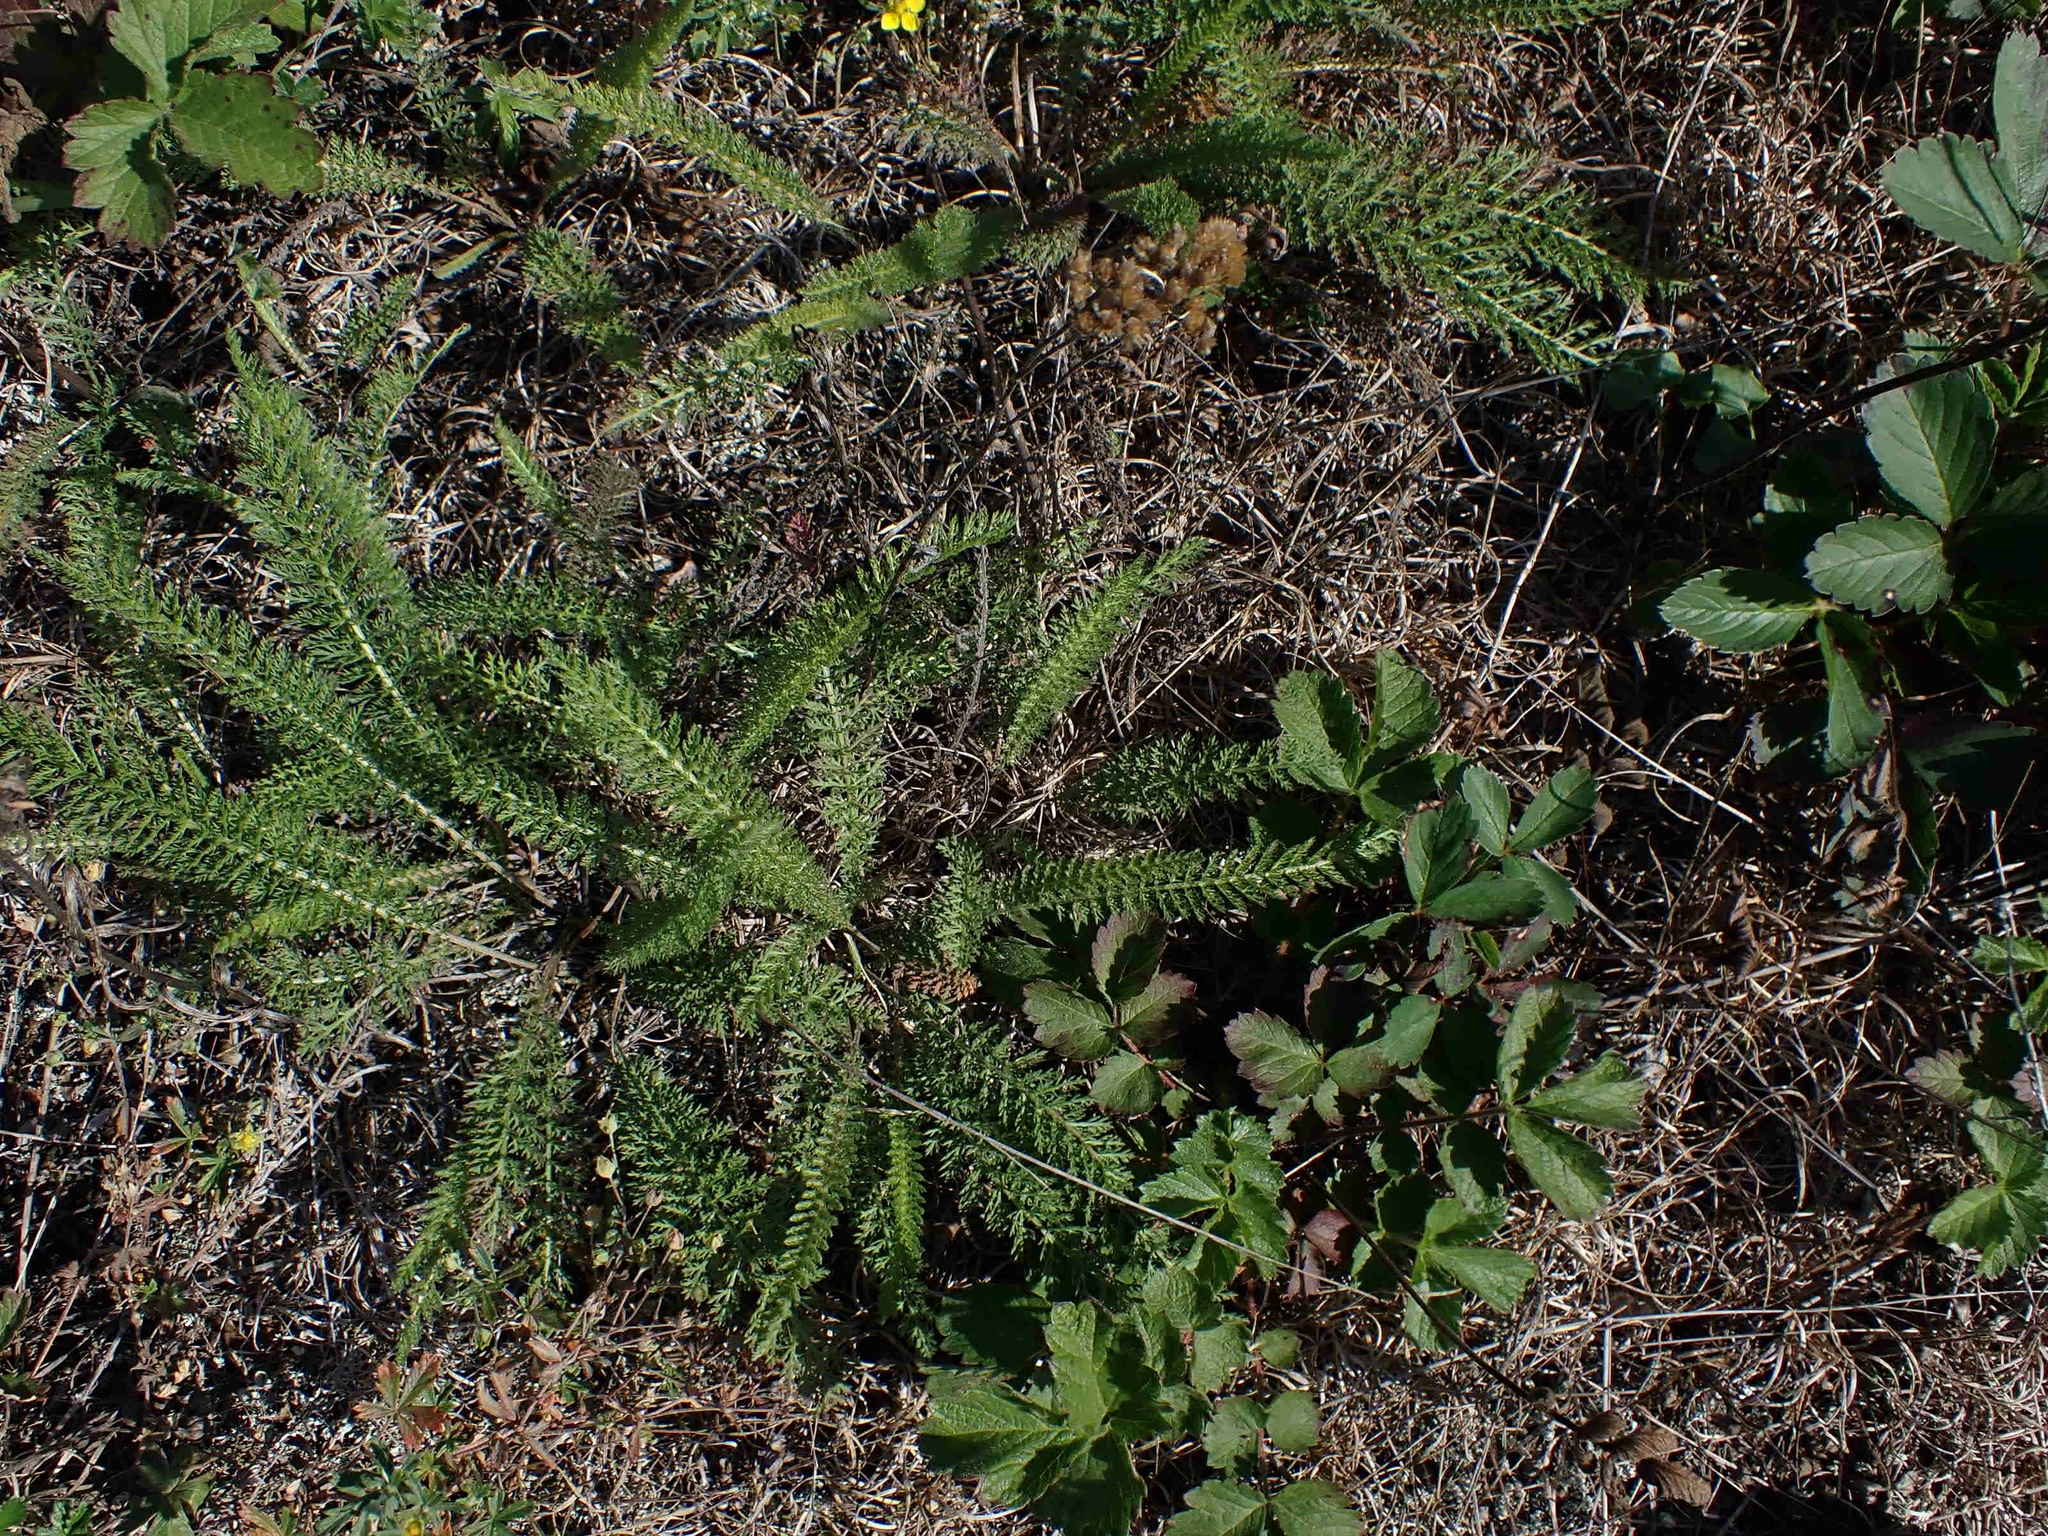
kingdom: Plantae
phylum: Tracheophyta
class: Magnoliopsida
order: Asterales
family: Asteraceae
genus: Achillea
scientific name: Achillea millefolium
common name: Yarrow
